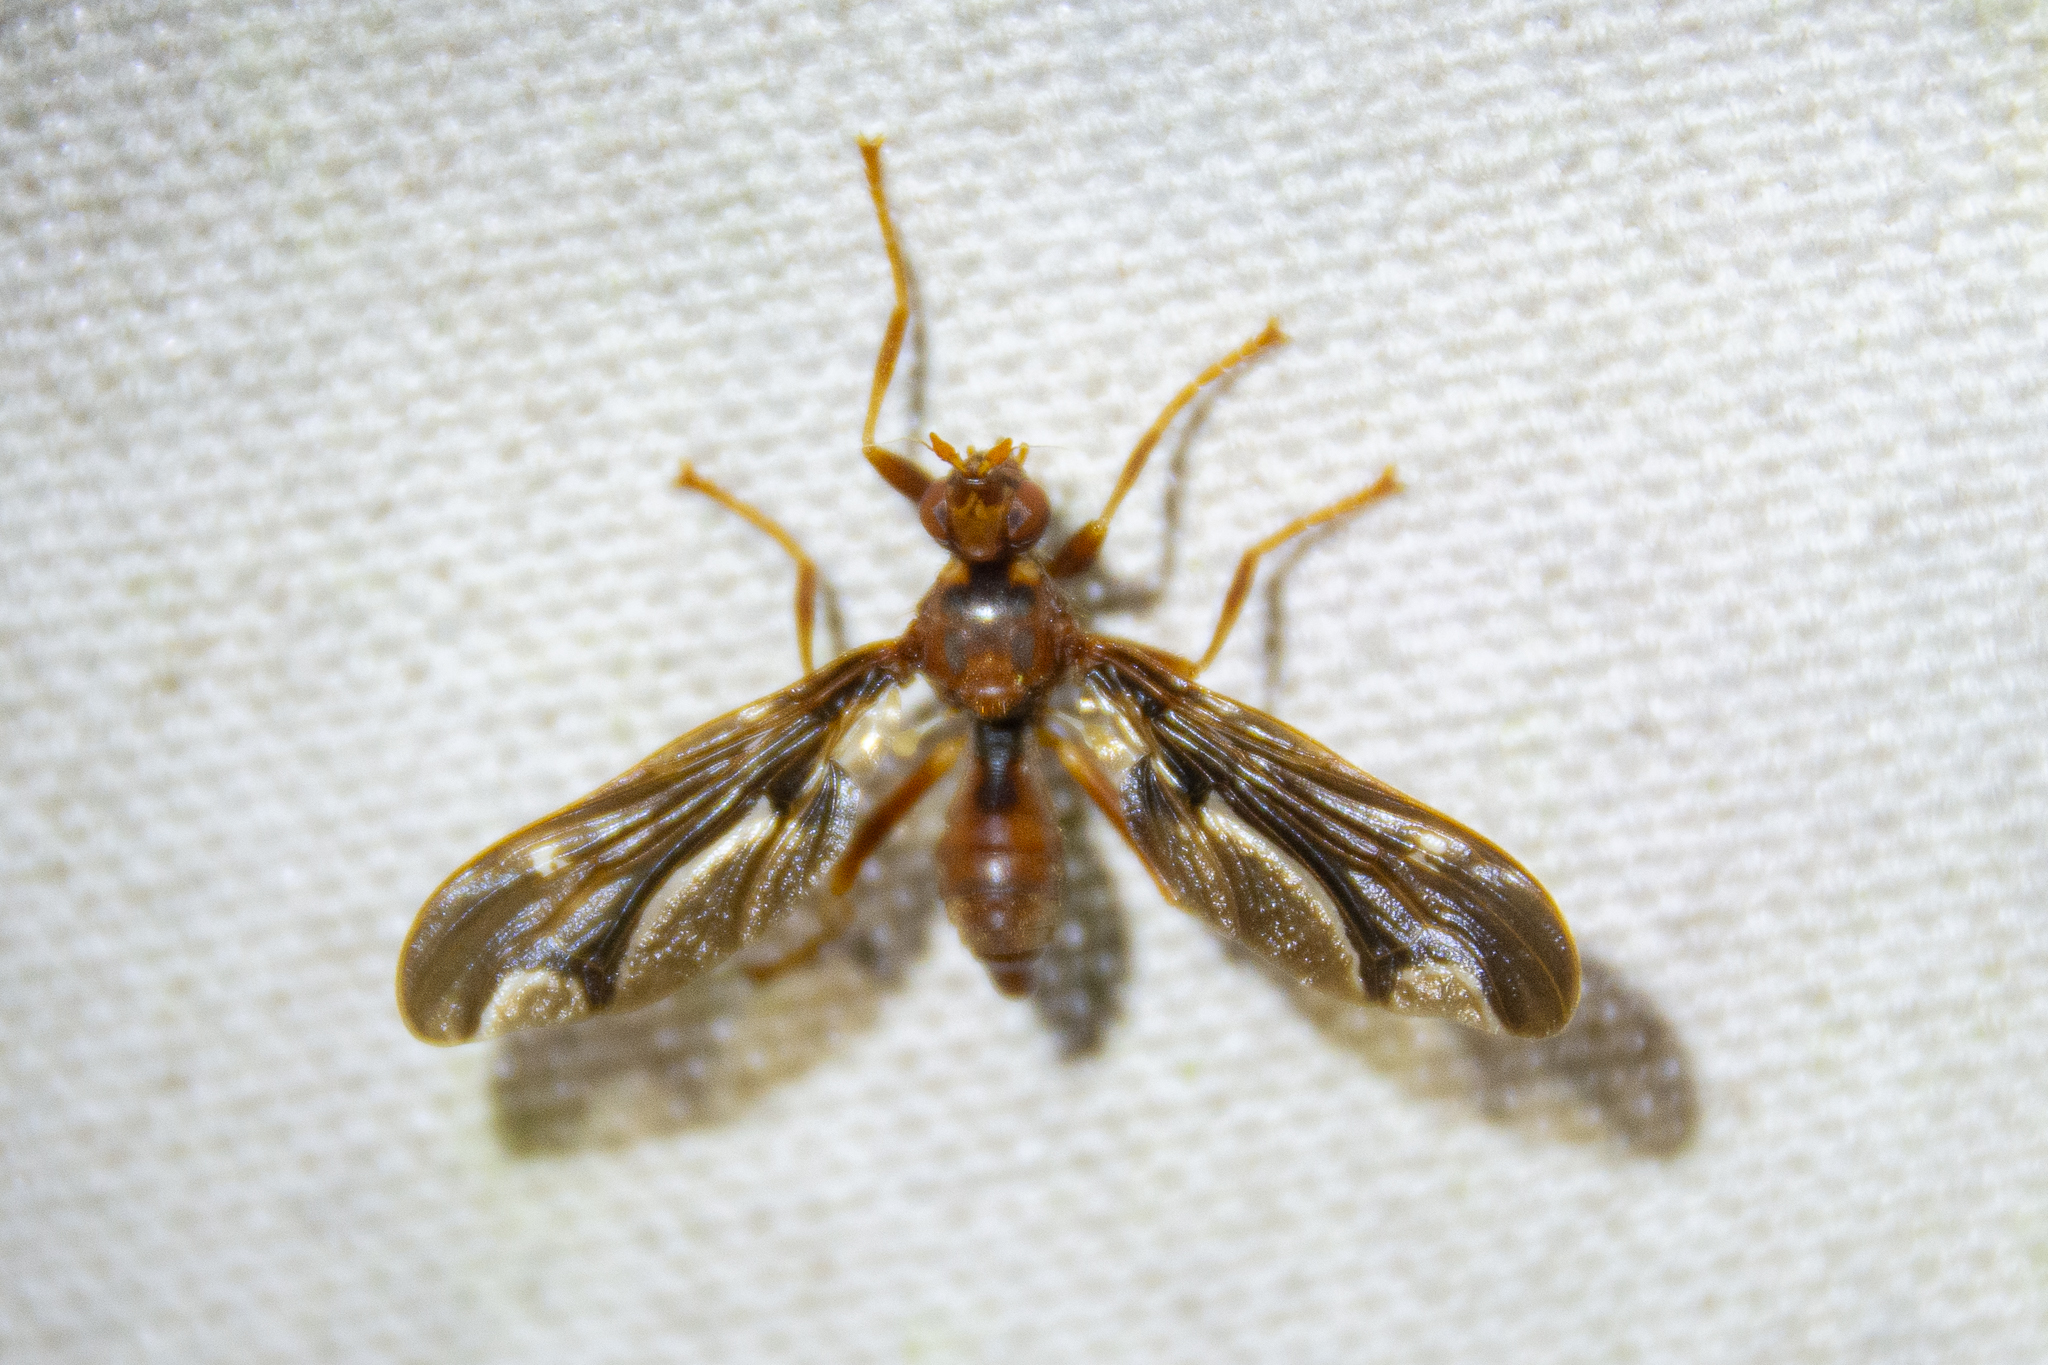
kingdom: Animalia
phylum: Arthropoda
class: Insecta
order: Diptera
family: Pyrgotidae
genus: Pyrgota
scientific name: Pyrgota undata
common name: Waved light fly
